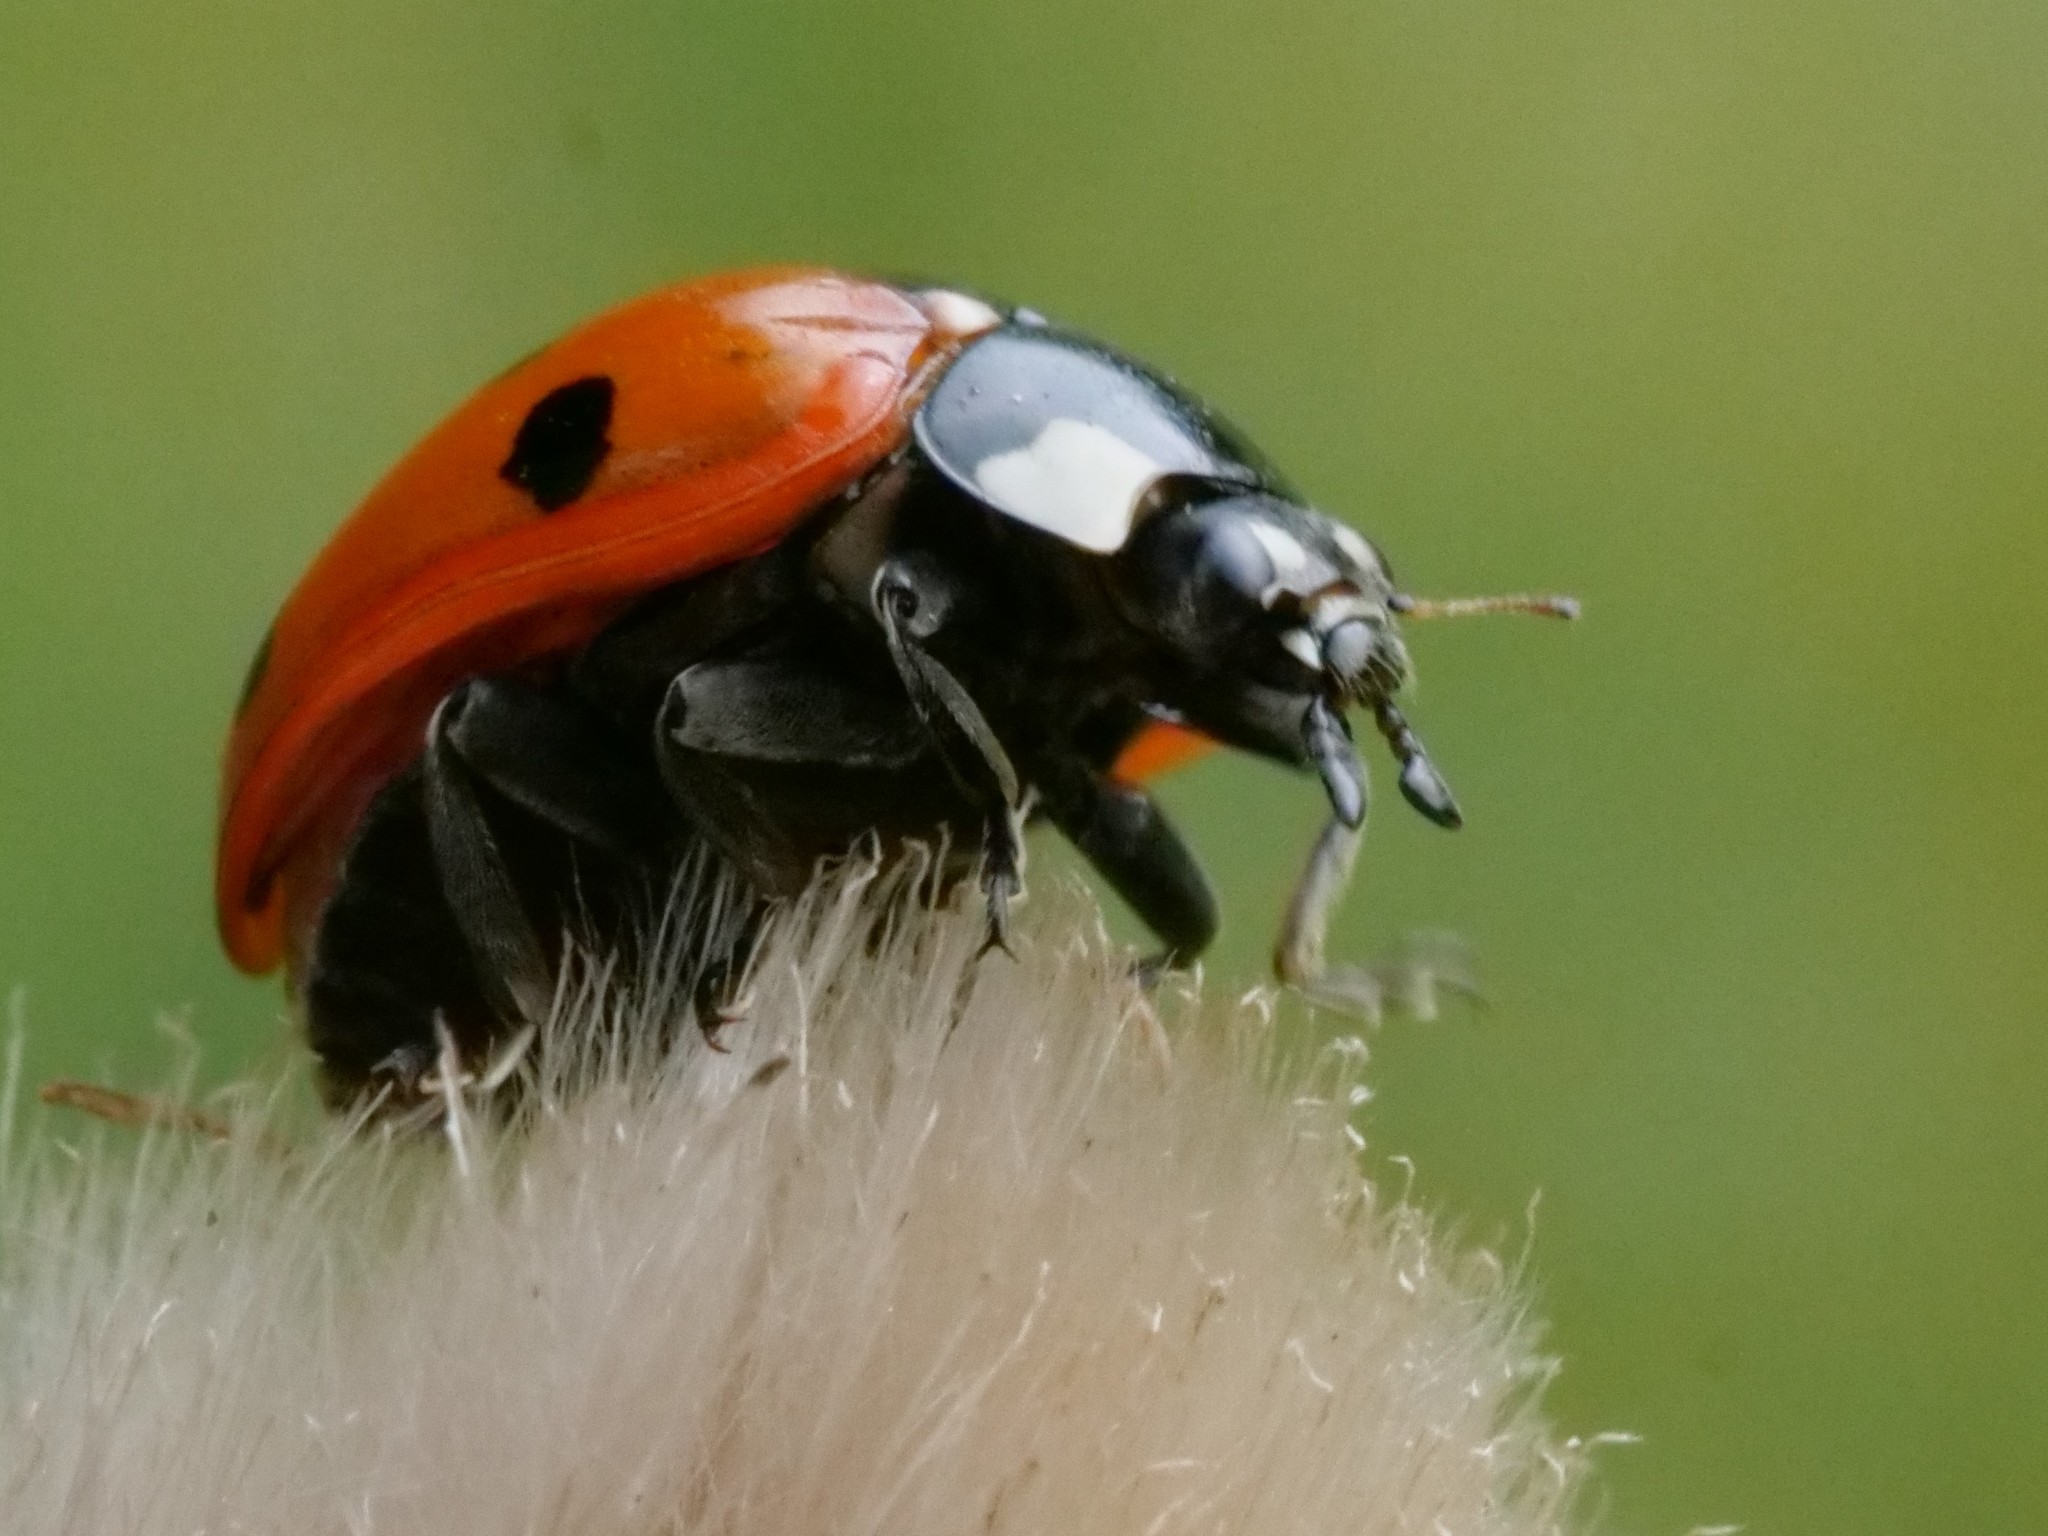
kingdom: Animalia
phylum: Arthropoda
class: Insecta
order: Coleoptera
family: Coccinellidae
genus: Coccinella
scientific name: Coccinella septempunctata
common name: Sevenspotted lady beetle
